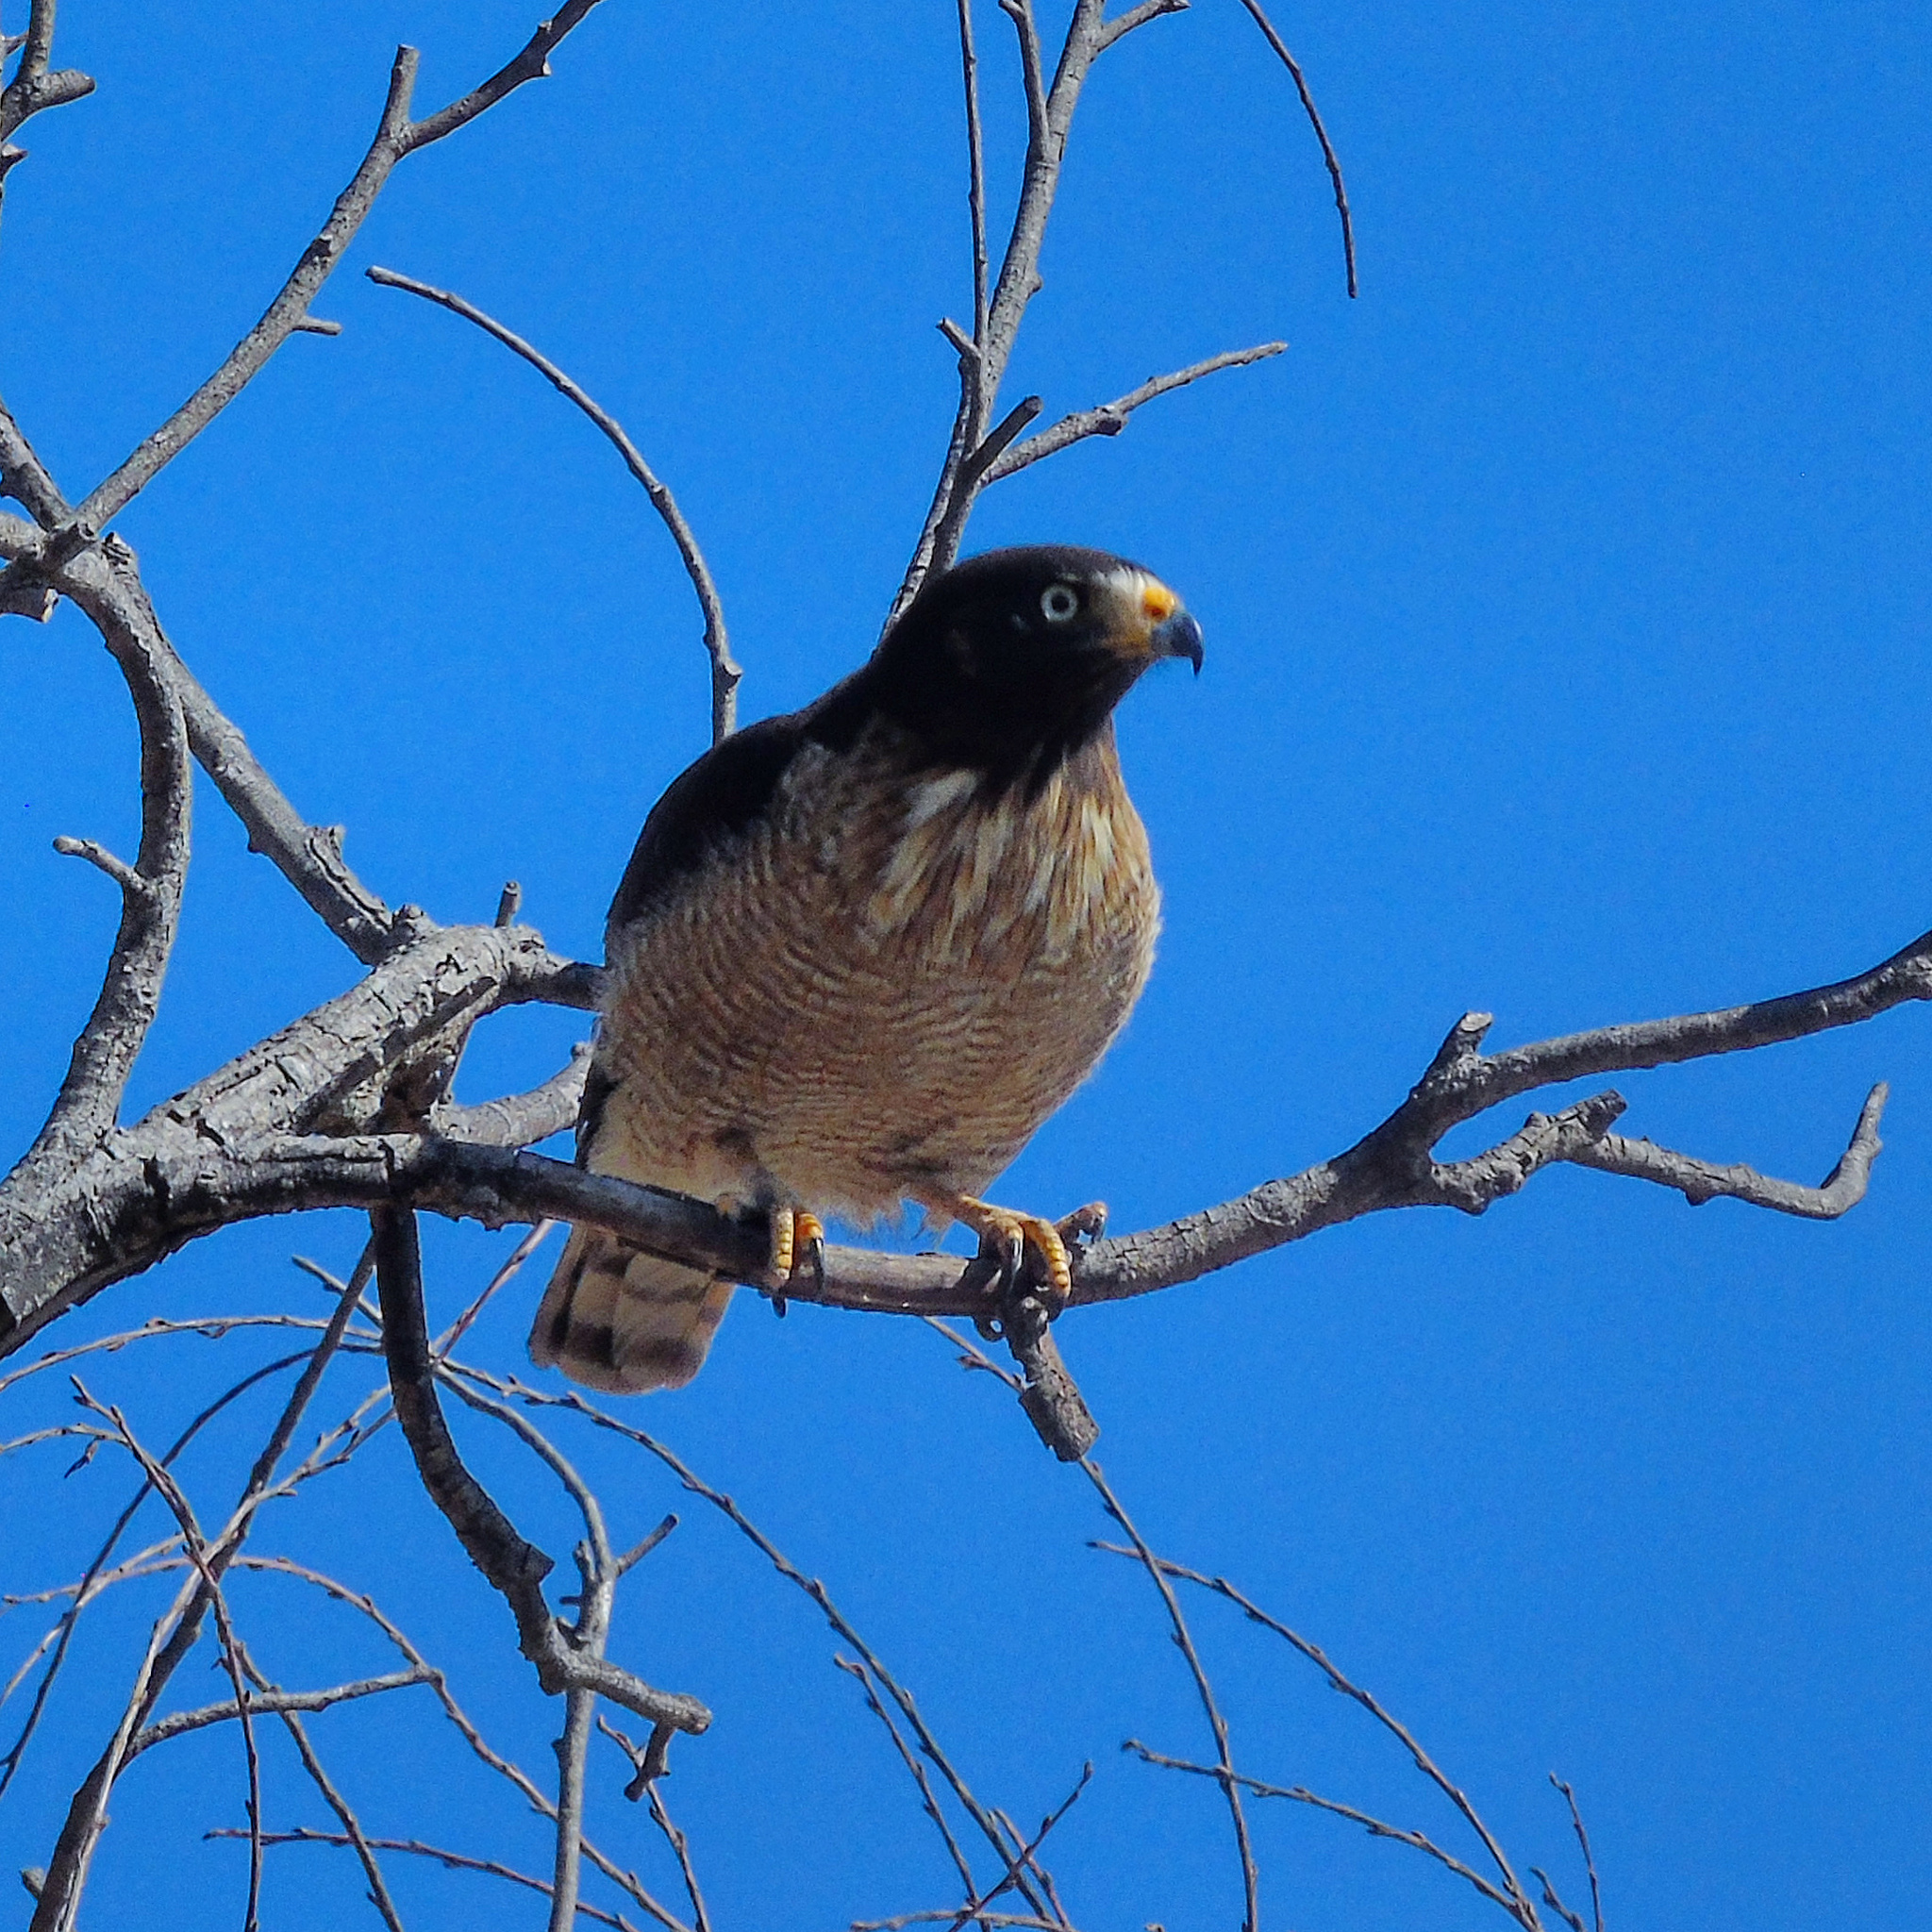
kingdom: Animalia
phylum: Chordata
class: Aves
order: Accipitriformes
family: Accipitridae
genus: Rupornis
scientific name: Rupornis magnirostris
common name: Roadside hawk
